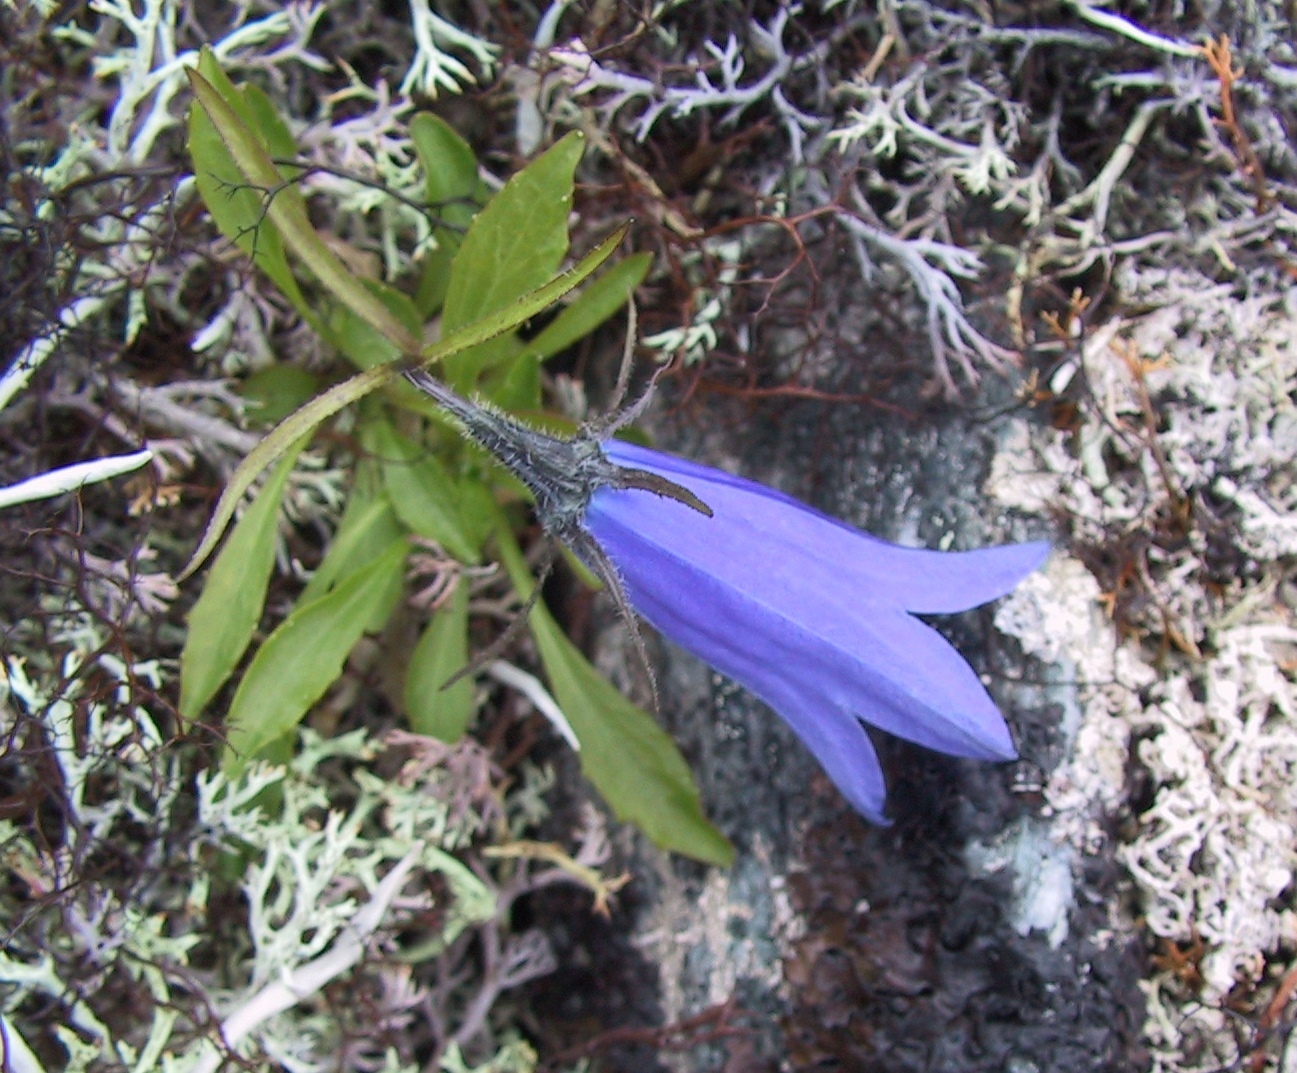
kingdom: Plantae
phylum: Tracheophyta
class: Magnoliopsida
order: Asterales
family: Campanulaceae
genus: Campanula
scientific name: Campanula lasiocarpa
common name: Mountain harebell
